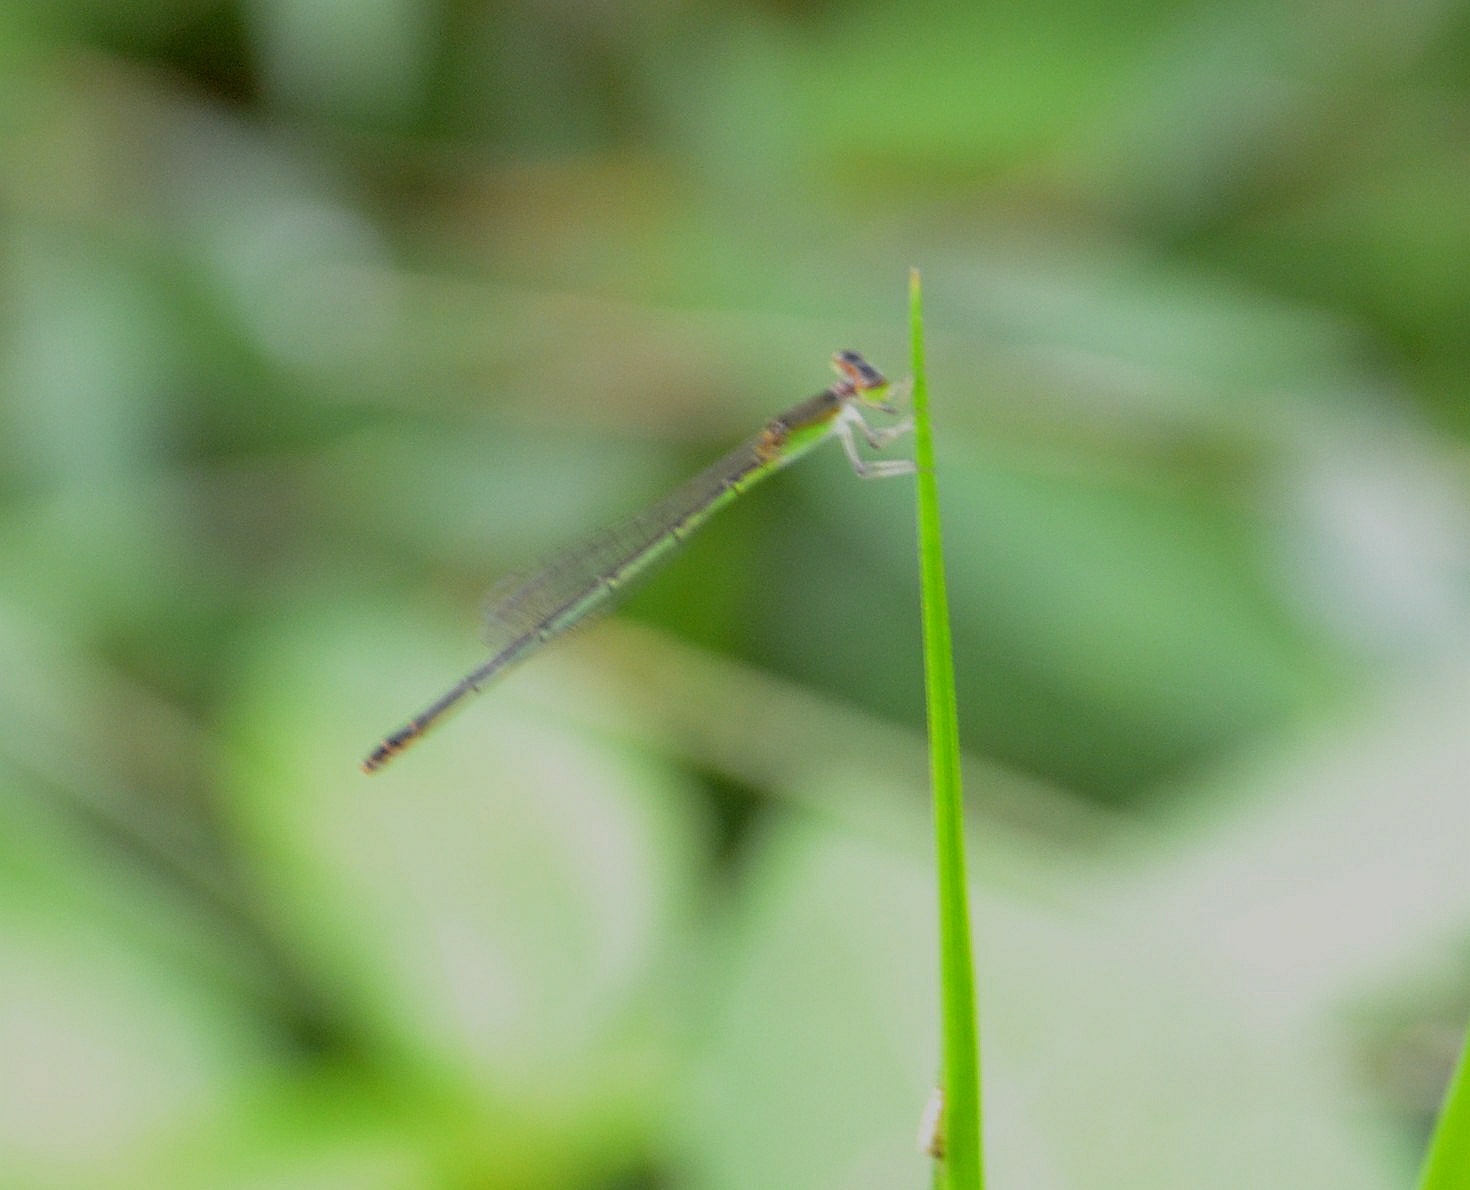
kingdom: Animalia
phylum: Arthropoda
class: Insecta
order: Odonata
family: Coenagrionidae
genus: Agriocnemis
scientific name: Agriocnemis pygmaea
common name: Pygmy wisp
